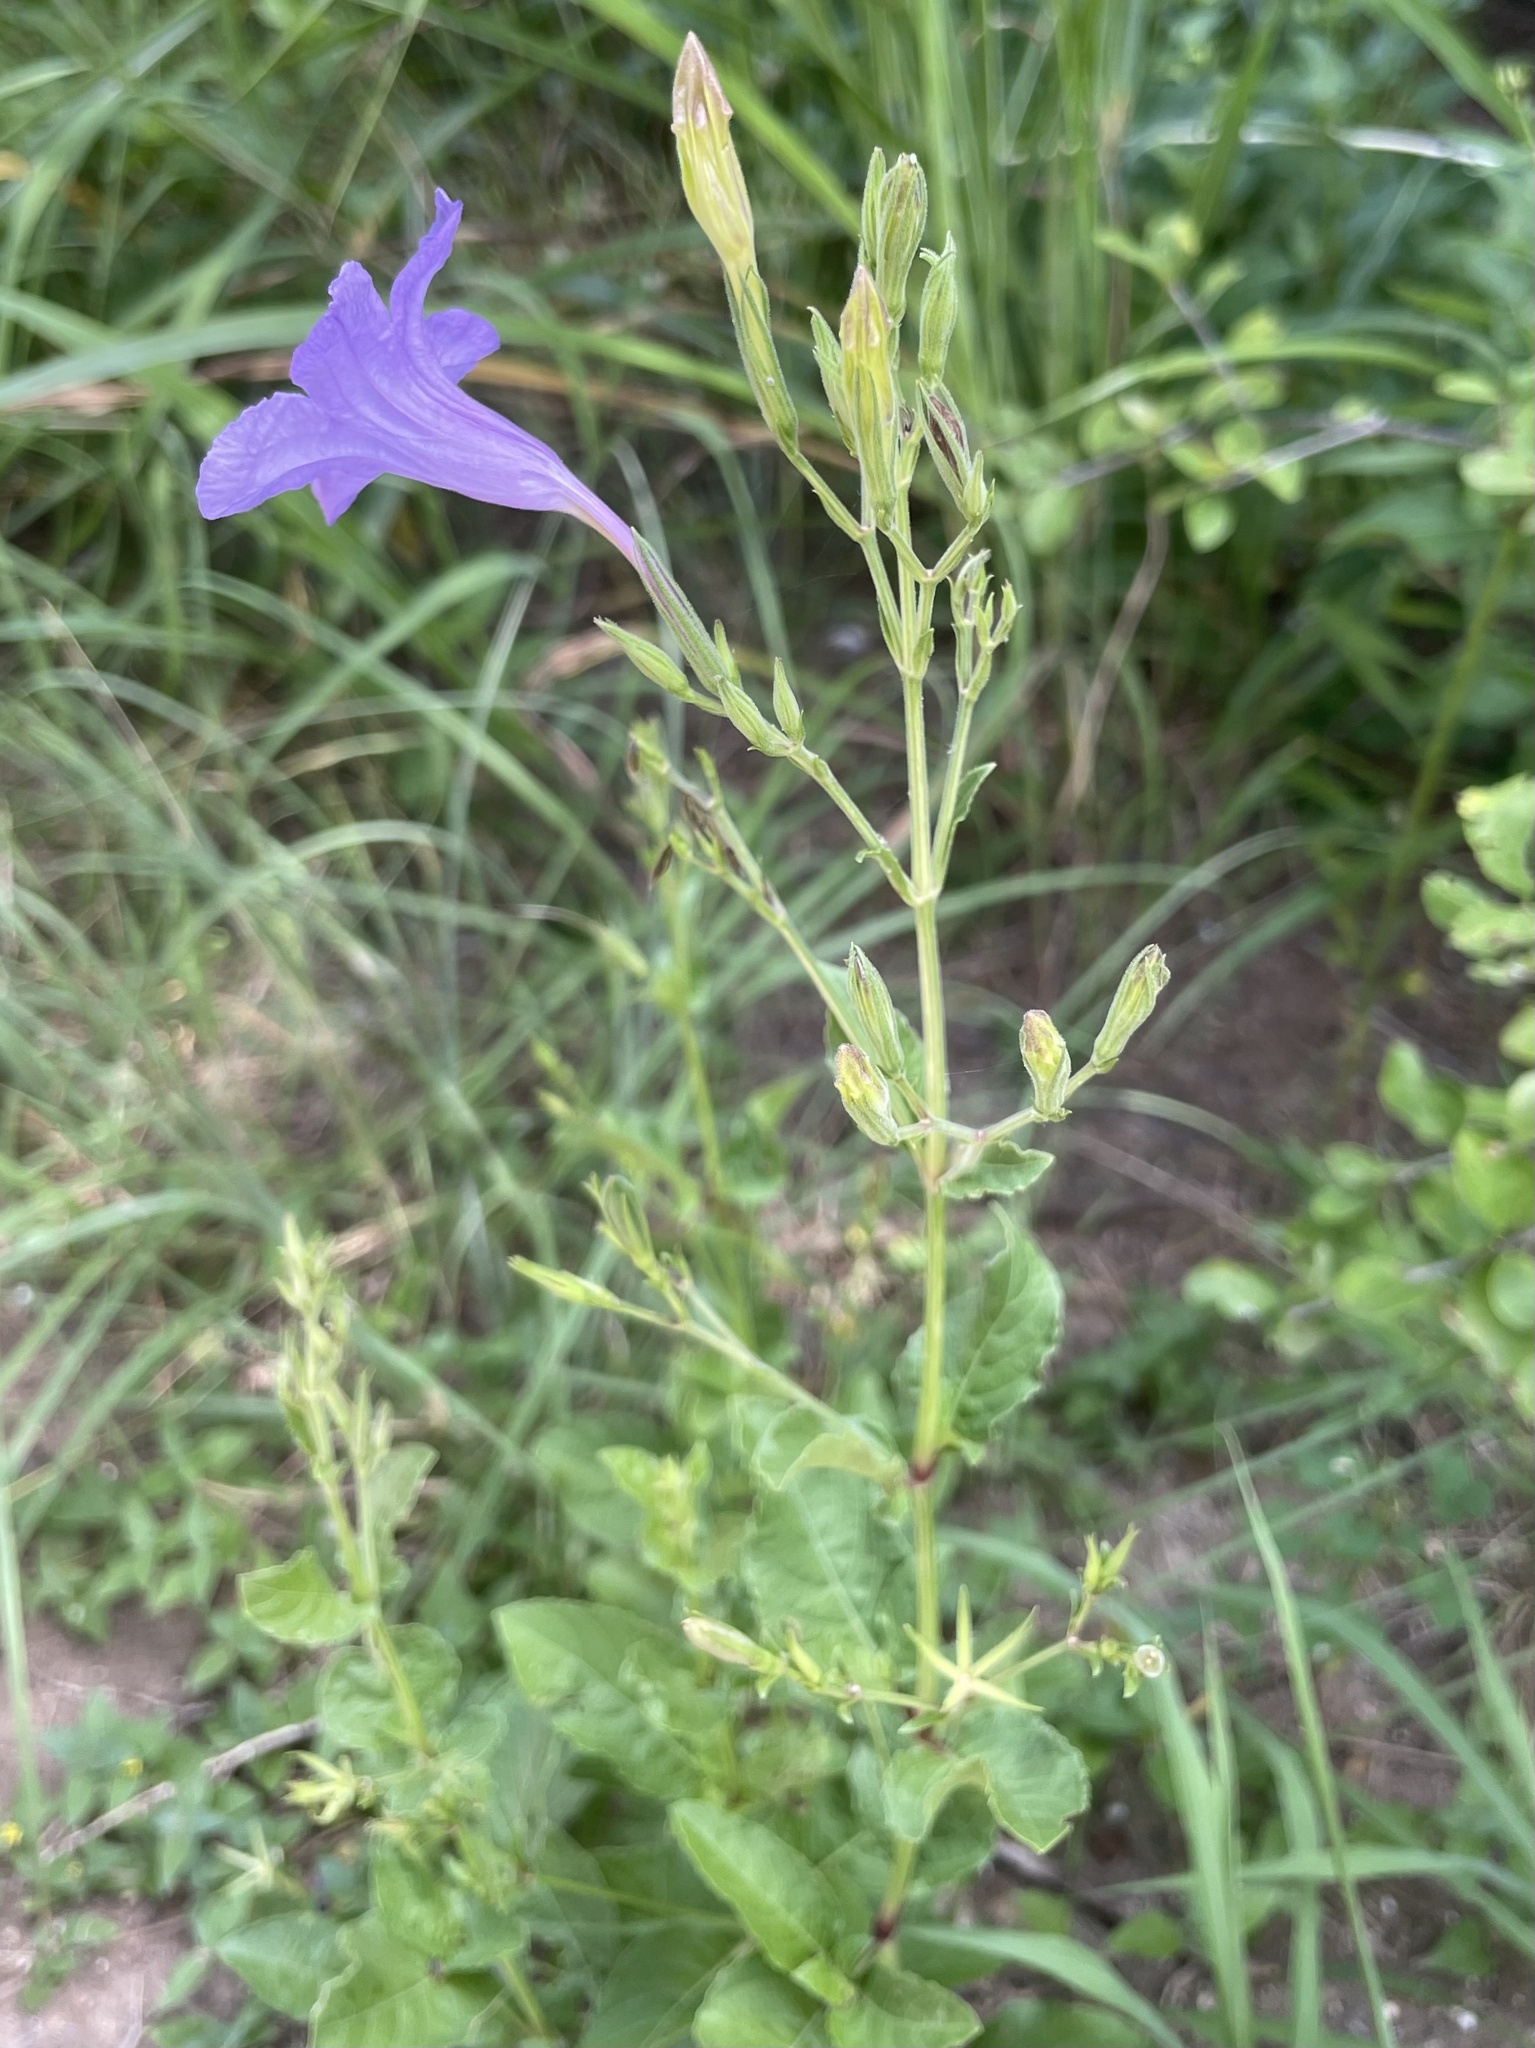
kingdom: Plantae
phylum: Tracheophyta
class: Magnoliopsida
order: Lamiales
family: Acanthaceae
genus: Ruellia
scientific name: Ruellia ciliatiflora
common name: Hairyflower wild petunia
